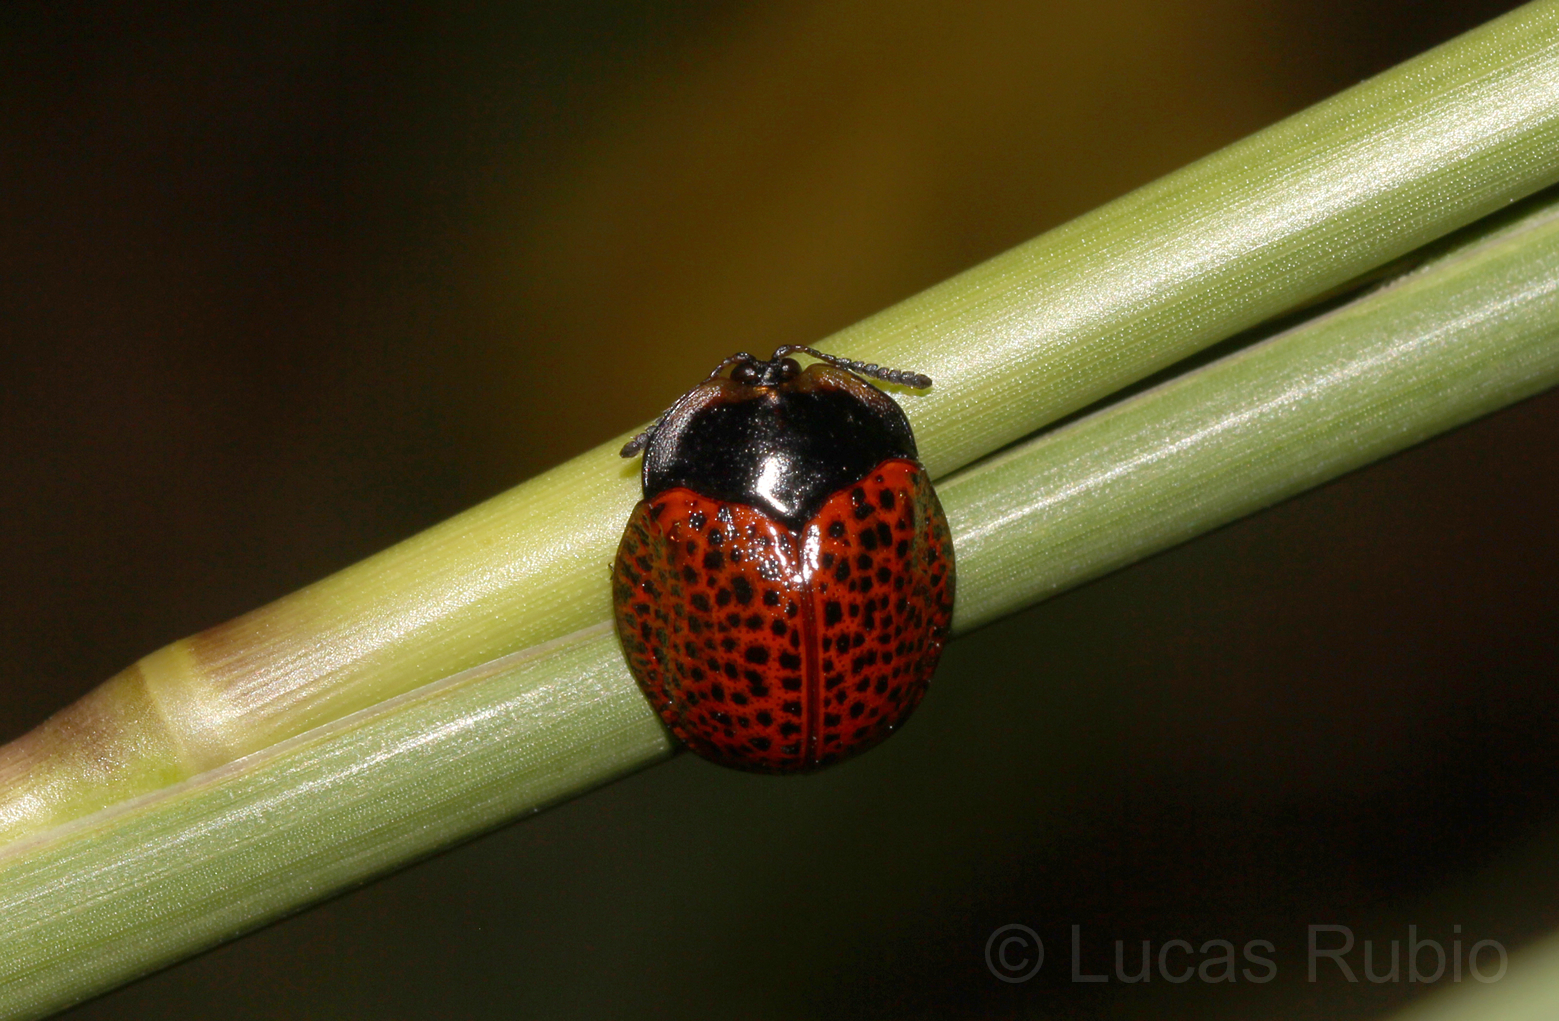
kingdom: Animalia
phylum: Arthropoda
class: Insecta
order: Coleoptera
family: Chrysomelidae
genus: Chelymorpha
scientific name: Chelymorpha cribraria
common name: Tortoise beetle
